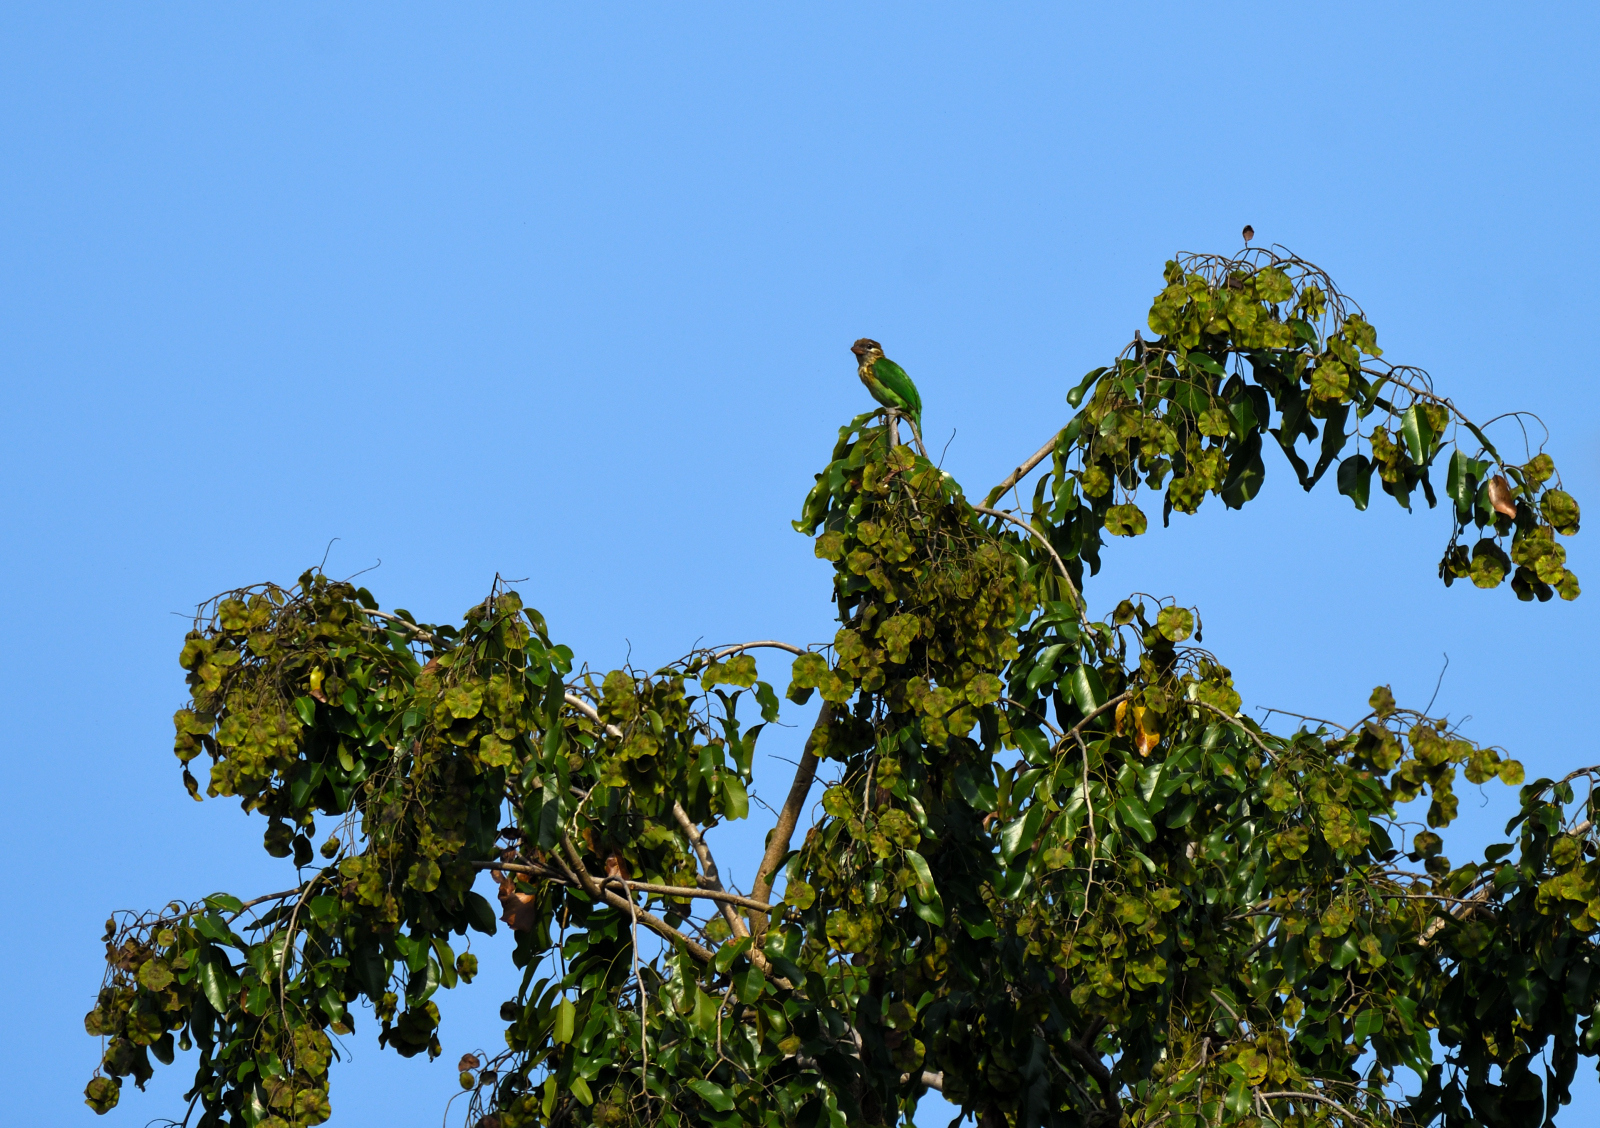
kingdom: Animalia
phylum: Chordata
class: Aves
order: Piciformes
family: Megalaimidae
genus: Psilopogon
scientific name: Psilopogon viridis
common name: White-cheeked barbet
